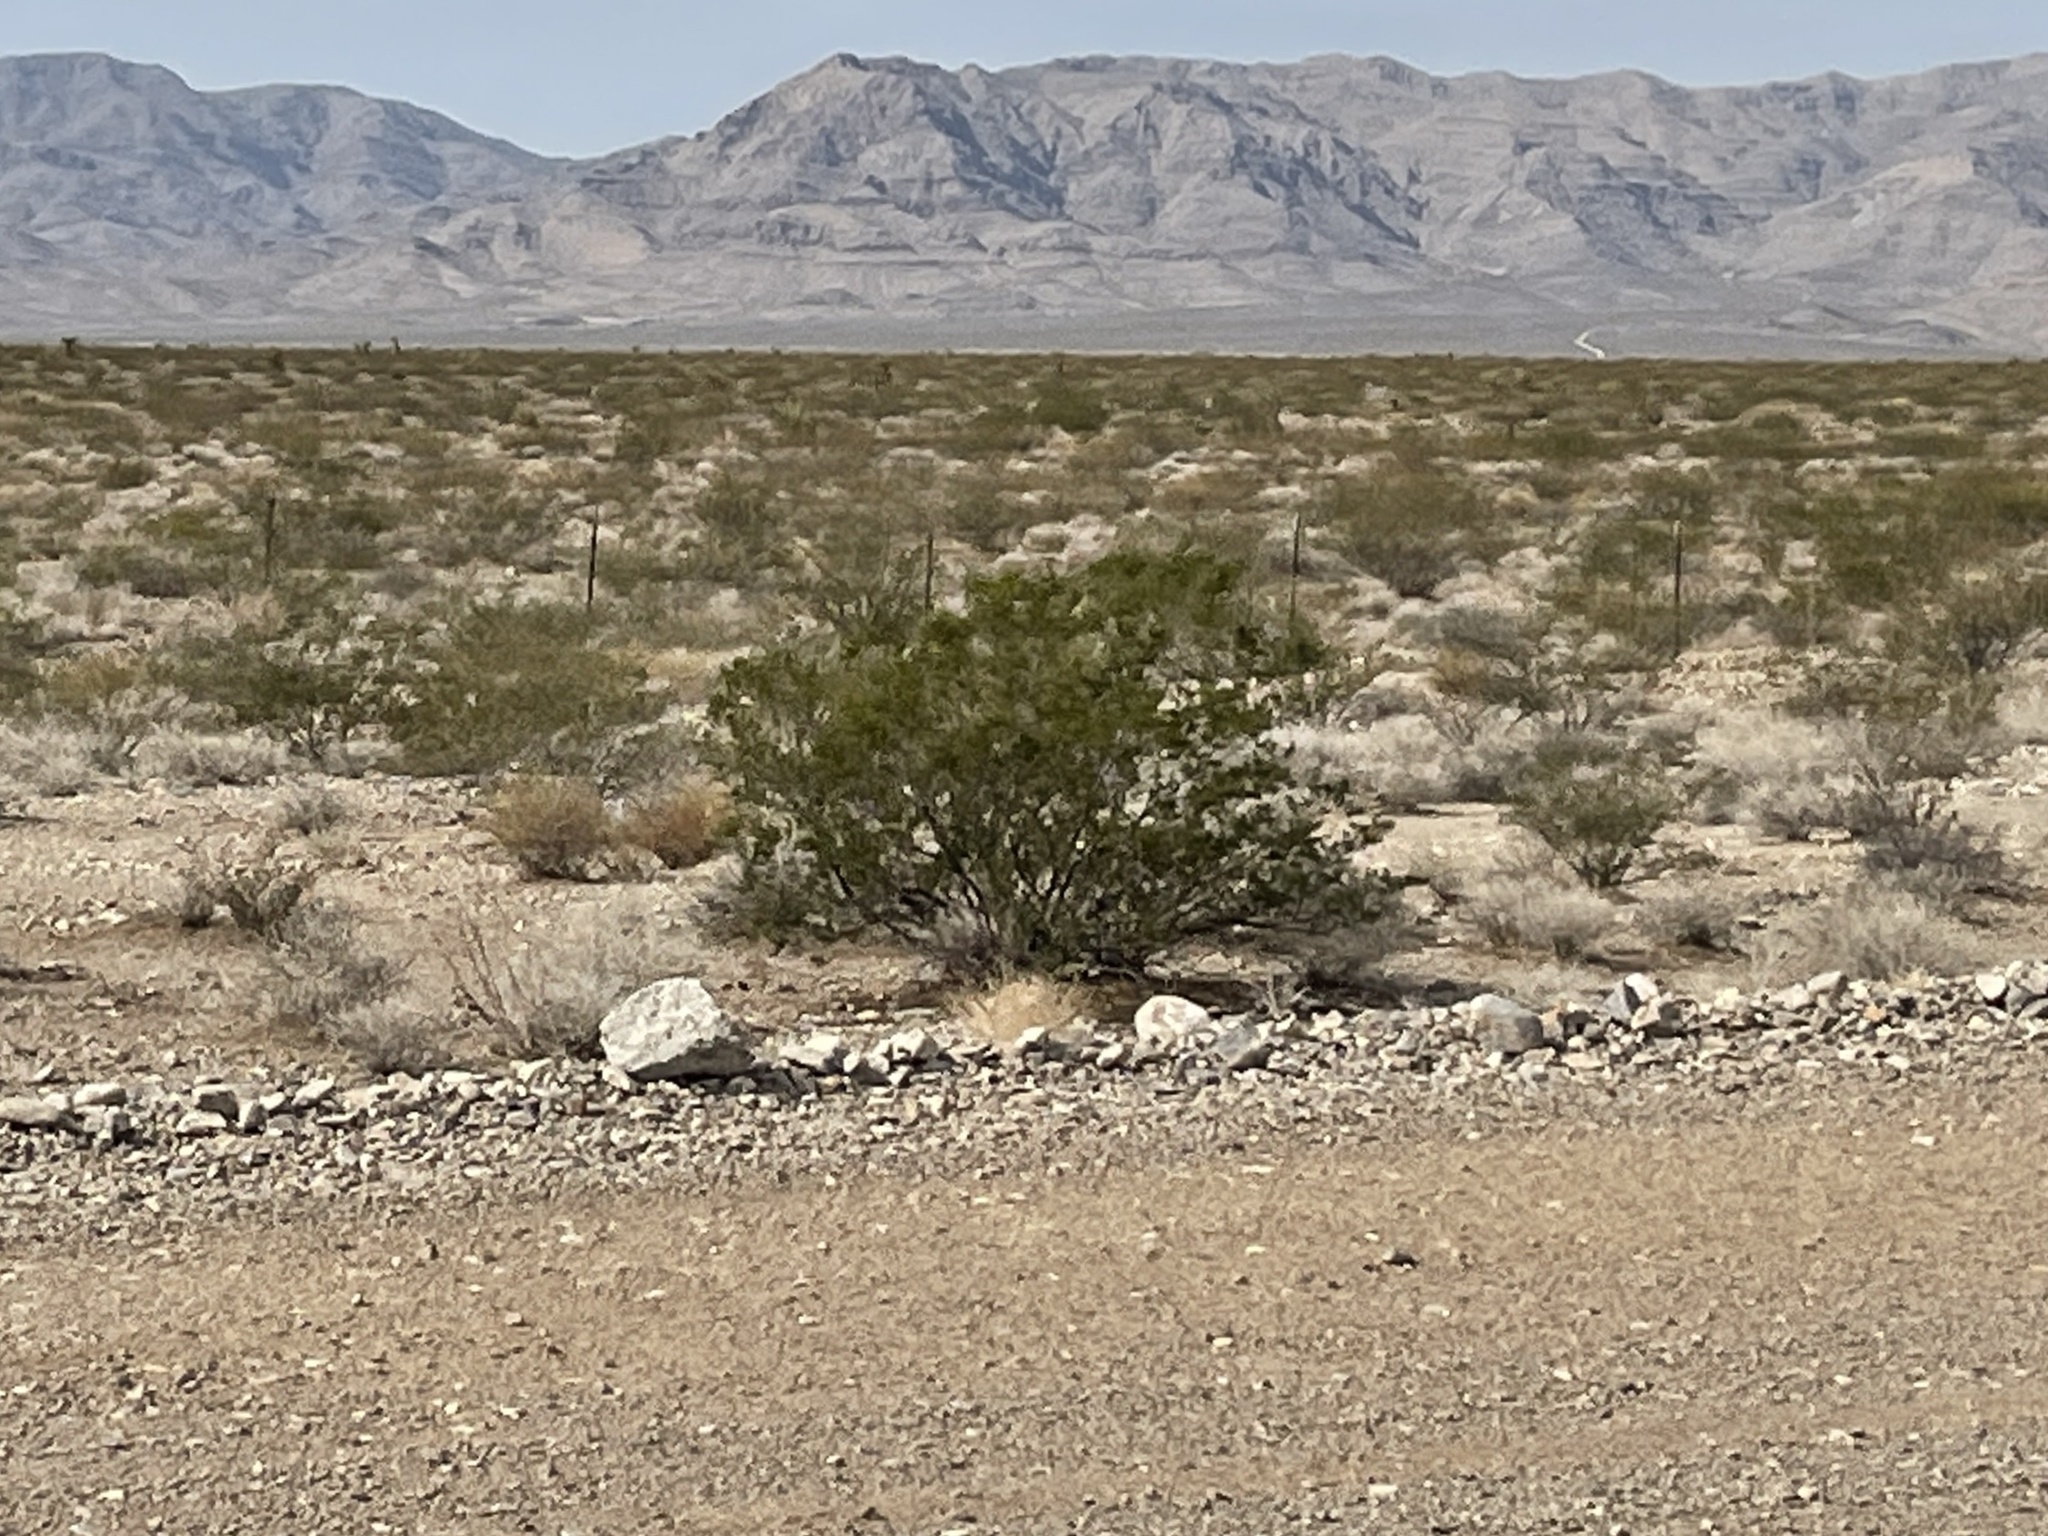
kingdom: Plantae
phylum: Tracheophyta
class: Magnoliopsida
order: Zygophyllales
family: Zygophyllaceae
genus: Larrea
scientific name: Larrea tridentata
